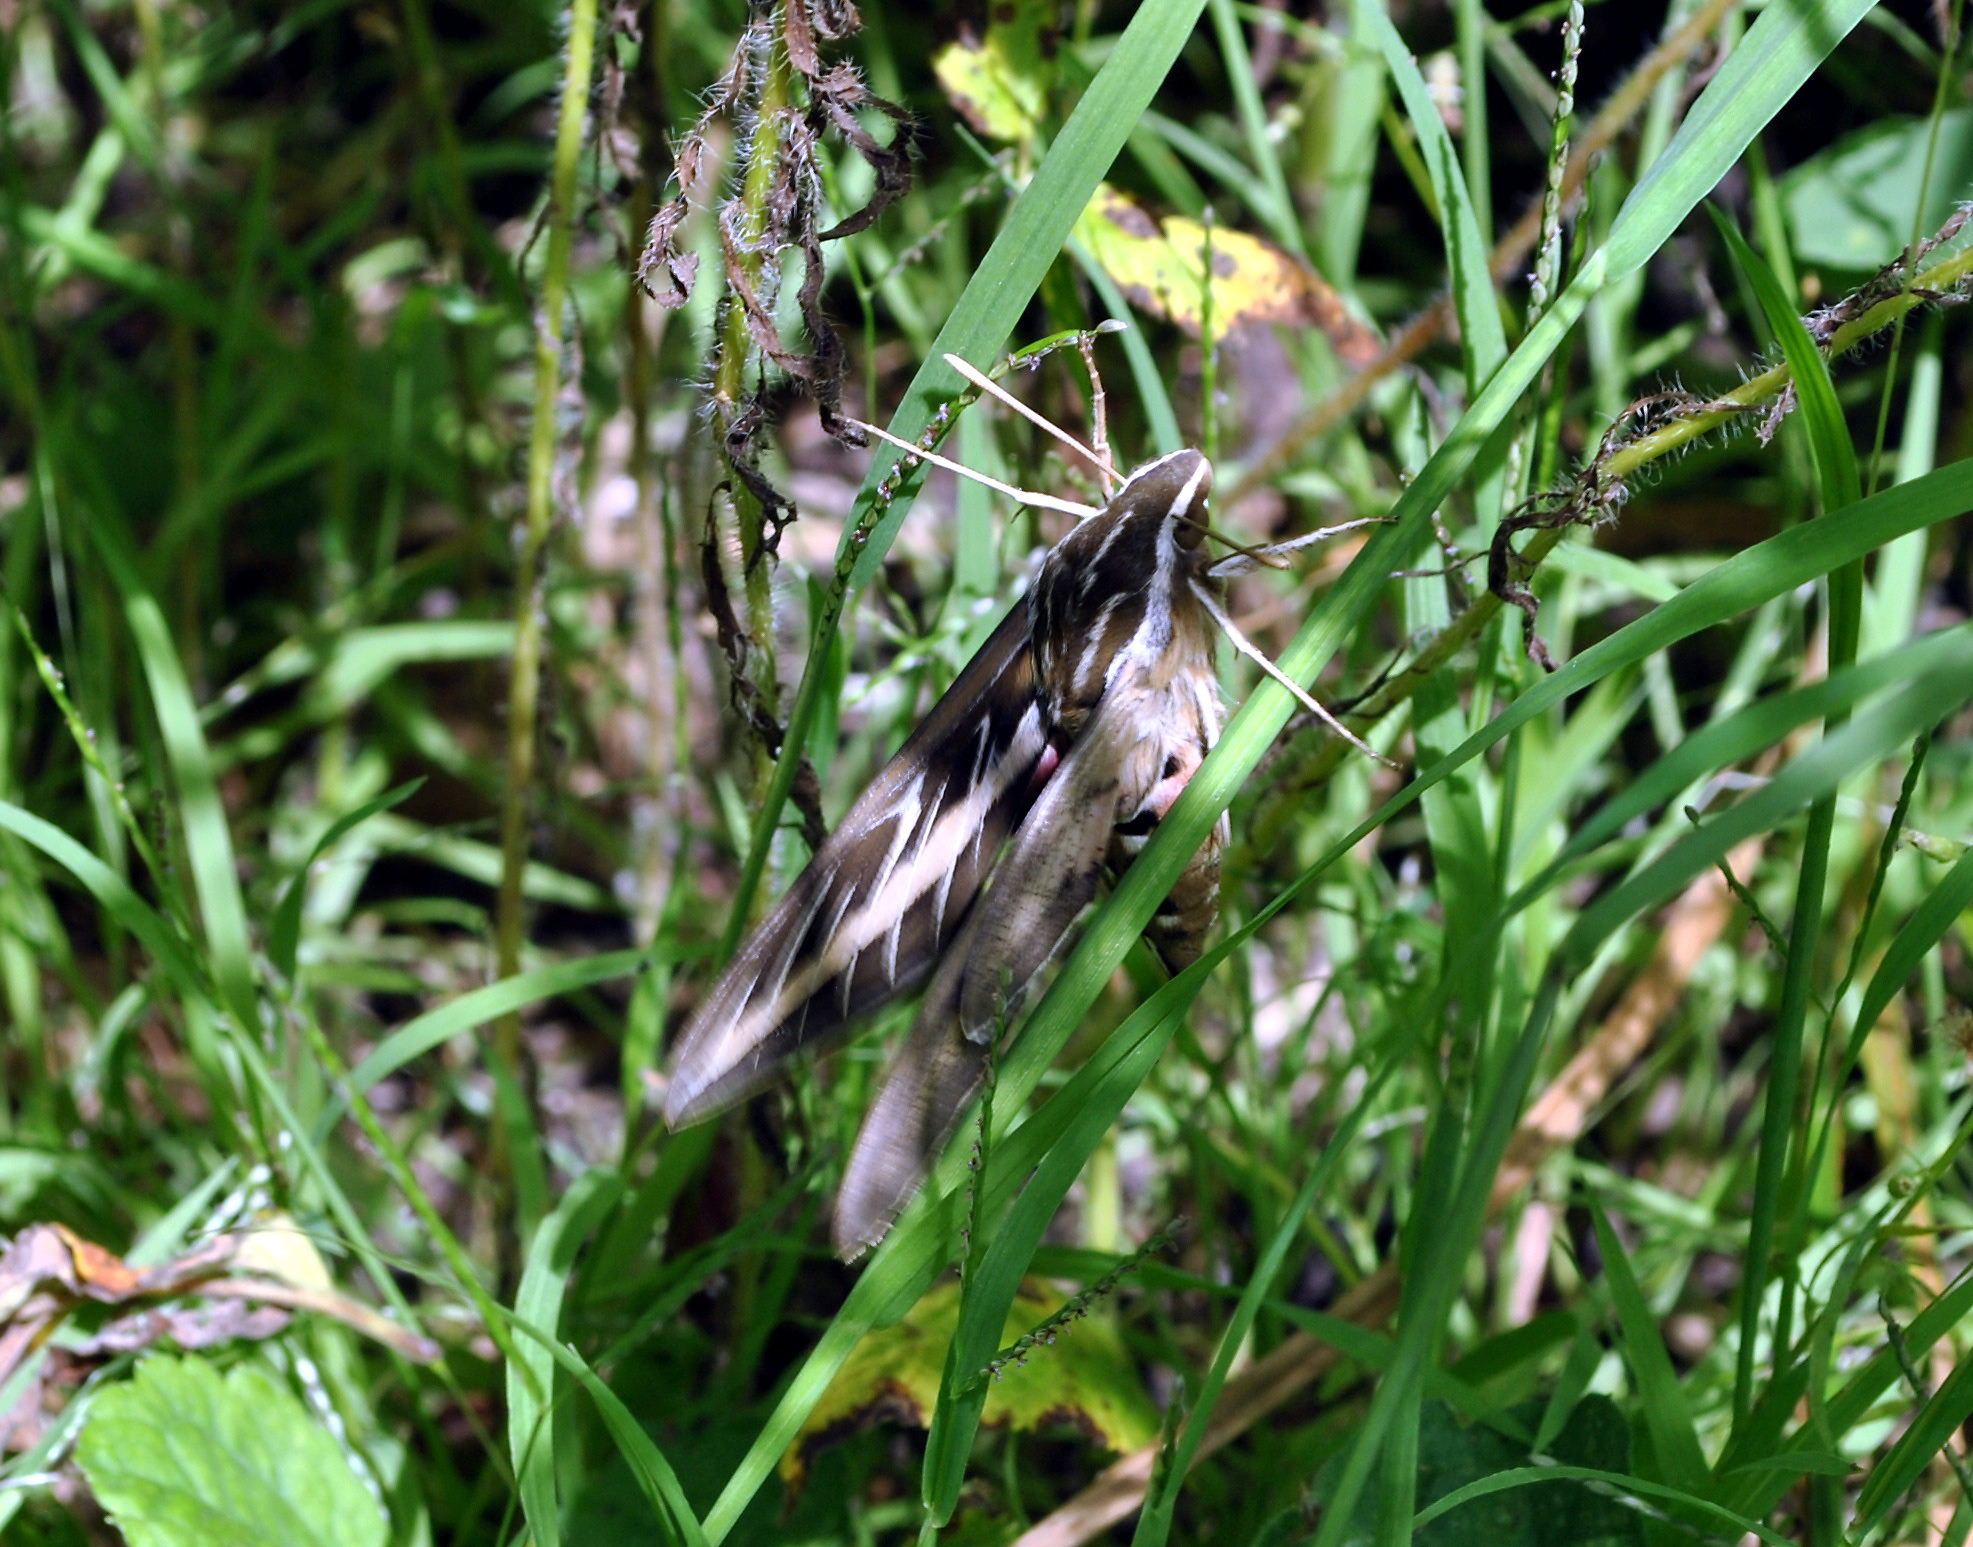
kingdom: Animalia
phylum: Arthropoda
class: Insecta
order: Lepidoptera
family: Sphingidae
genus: Hyles
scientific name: Hyles lineata
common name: White-lined sphinx
